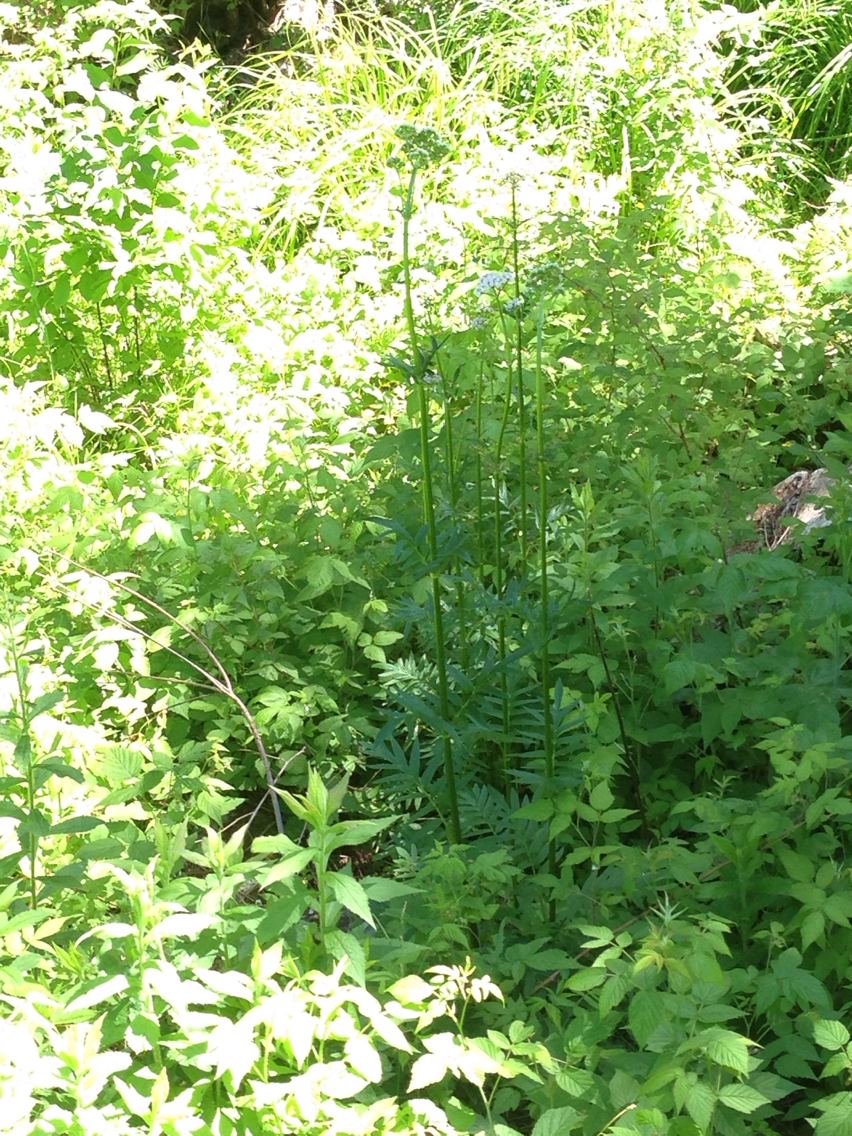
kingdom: Plantae
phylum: Tracheophyta
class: Magnoliopsida
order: Dipsacales
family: Caprifoliaceae
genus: Valeriana
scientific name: Valeriana officinalis
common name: Common valerian
